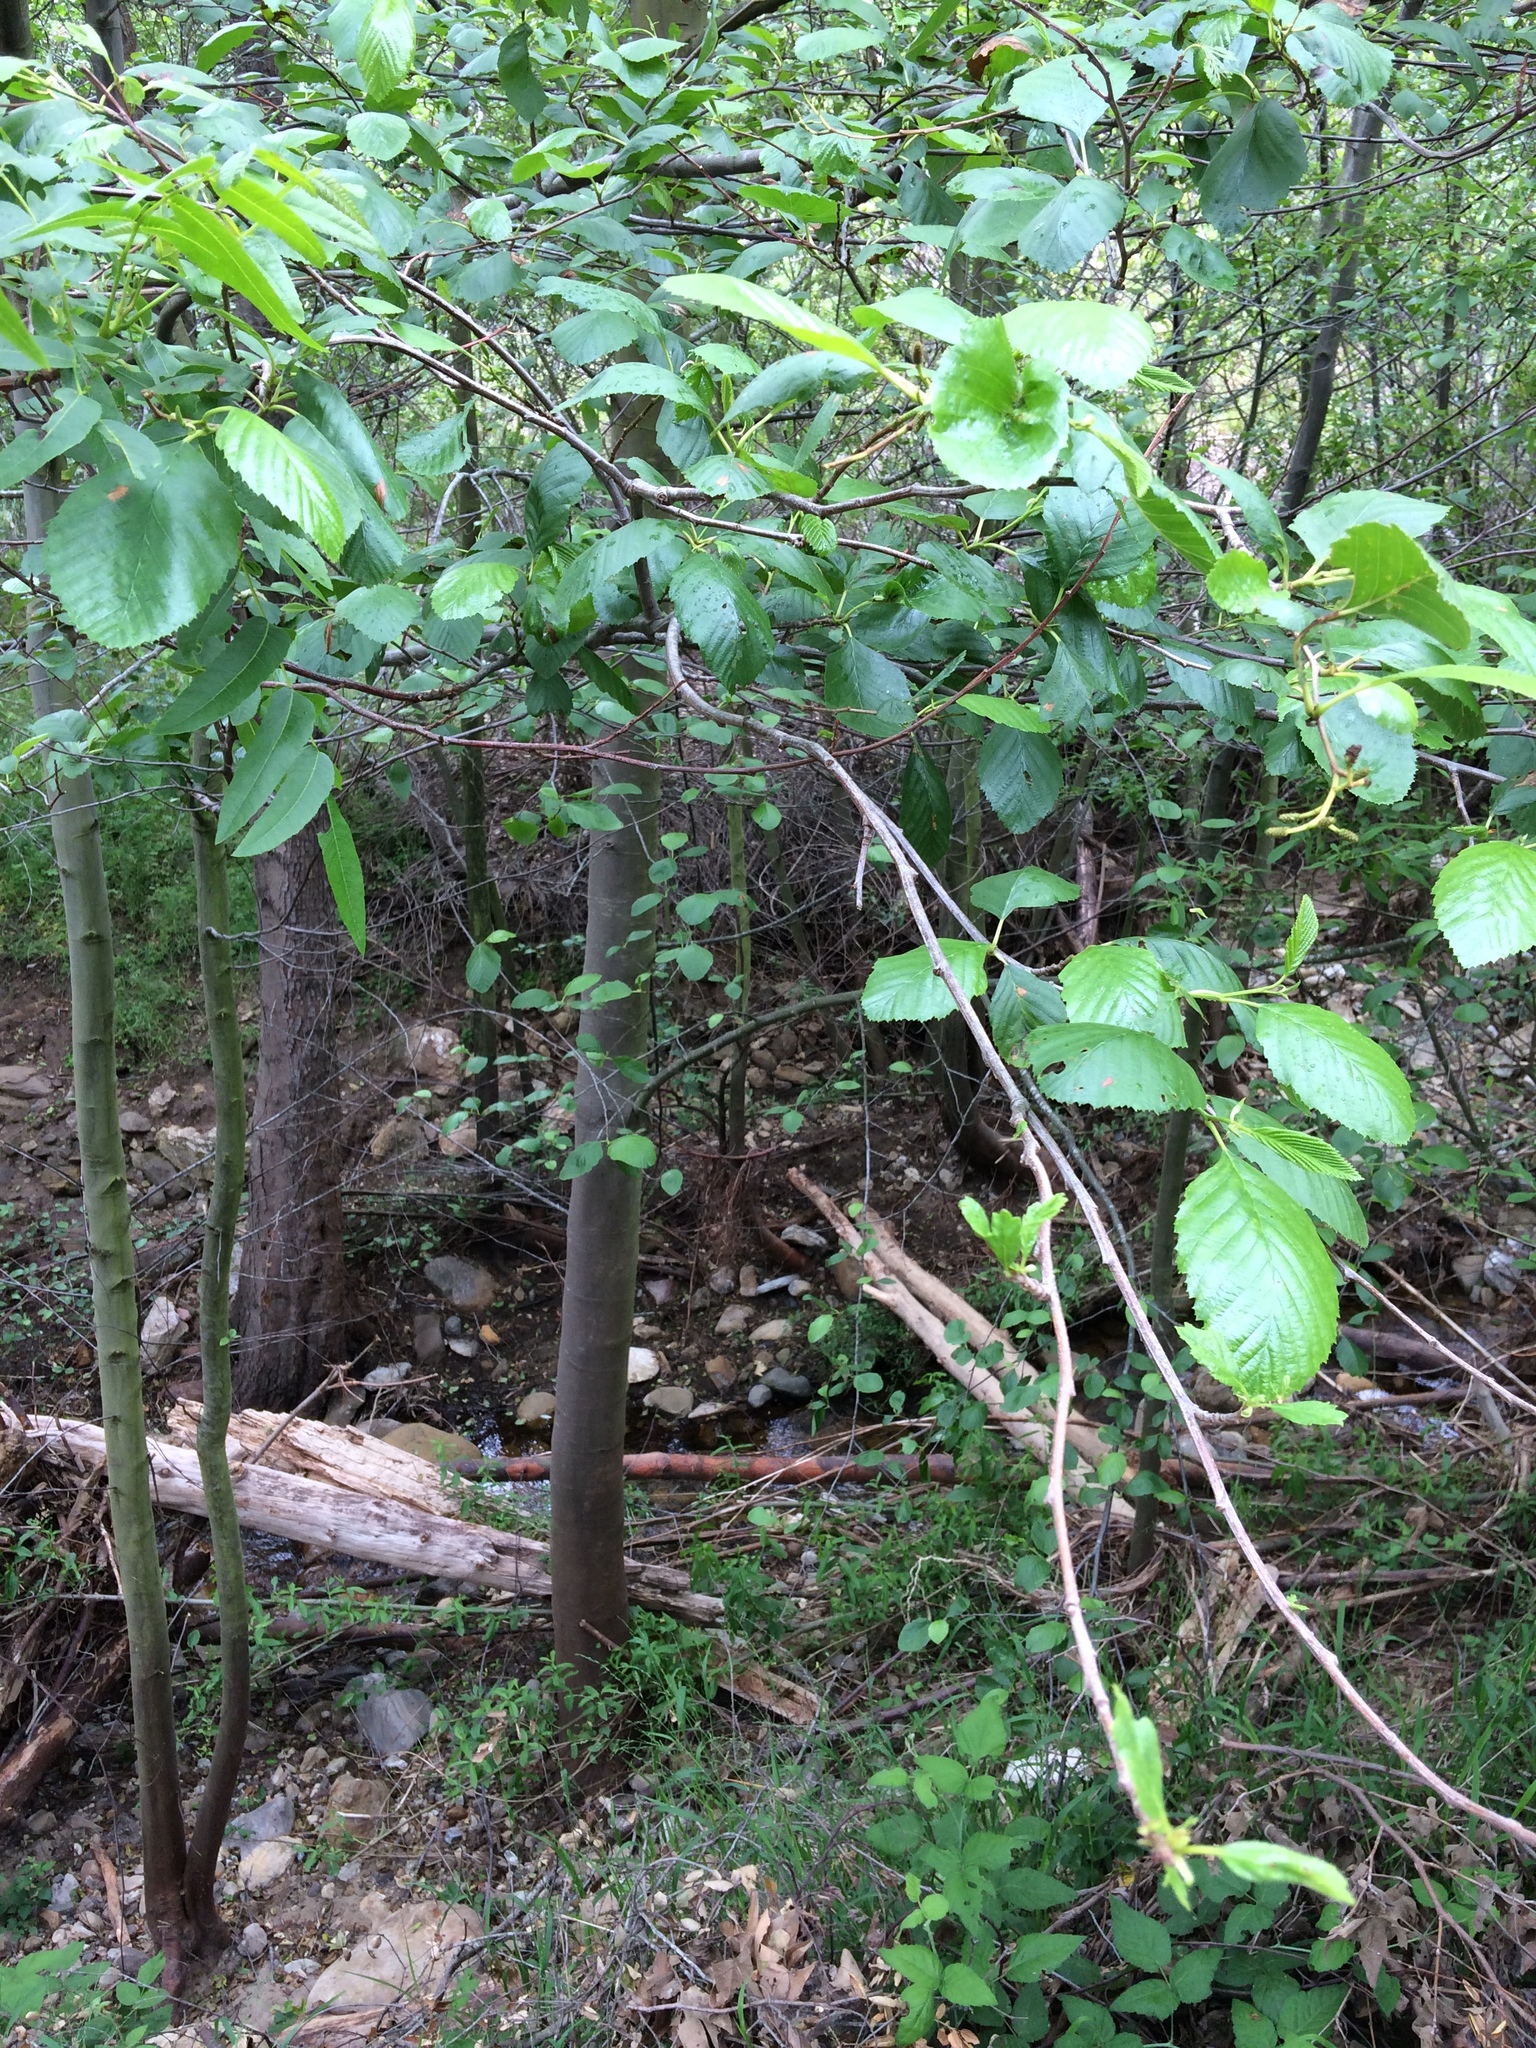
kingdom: Plantae
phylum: Tracheophyta
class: Magnoliopsida
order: Fagales
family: Betulaceae
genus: Alnus
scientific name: Alnus rhombifolia
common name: California alder
